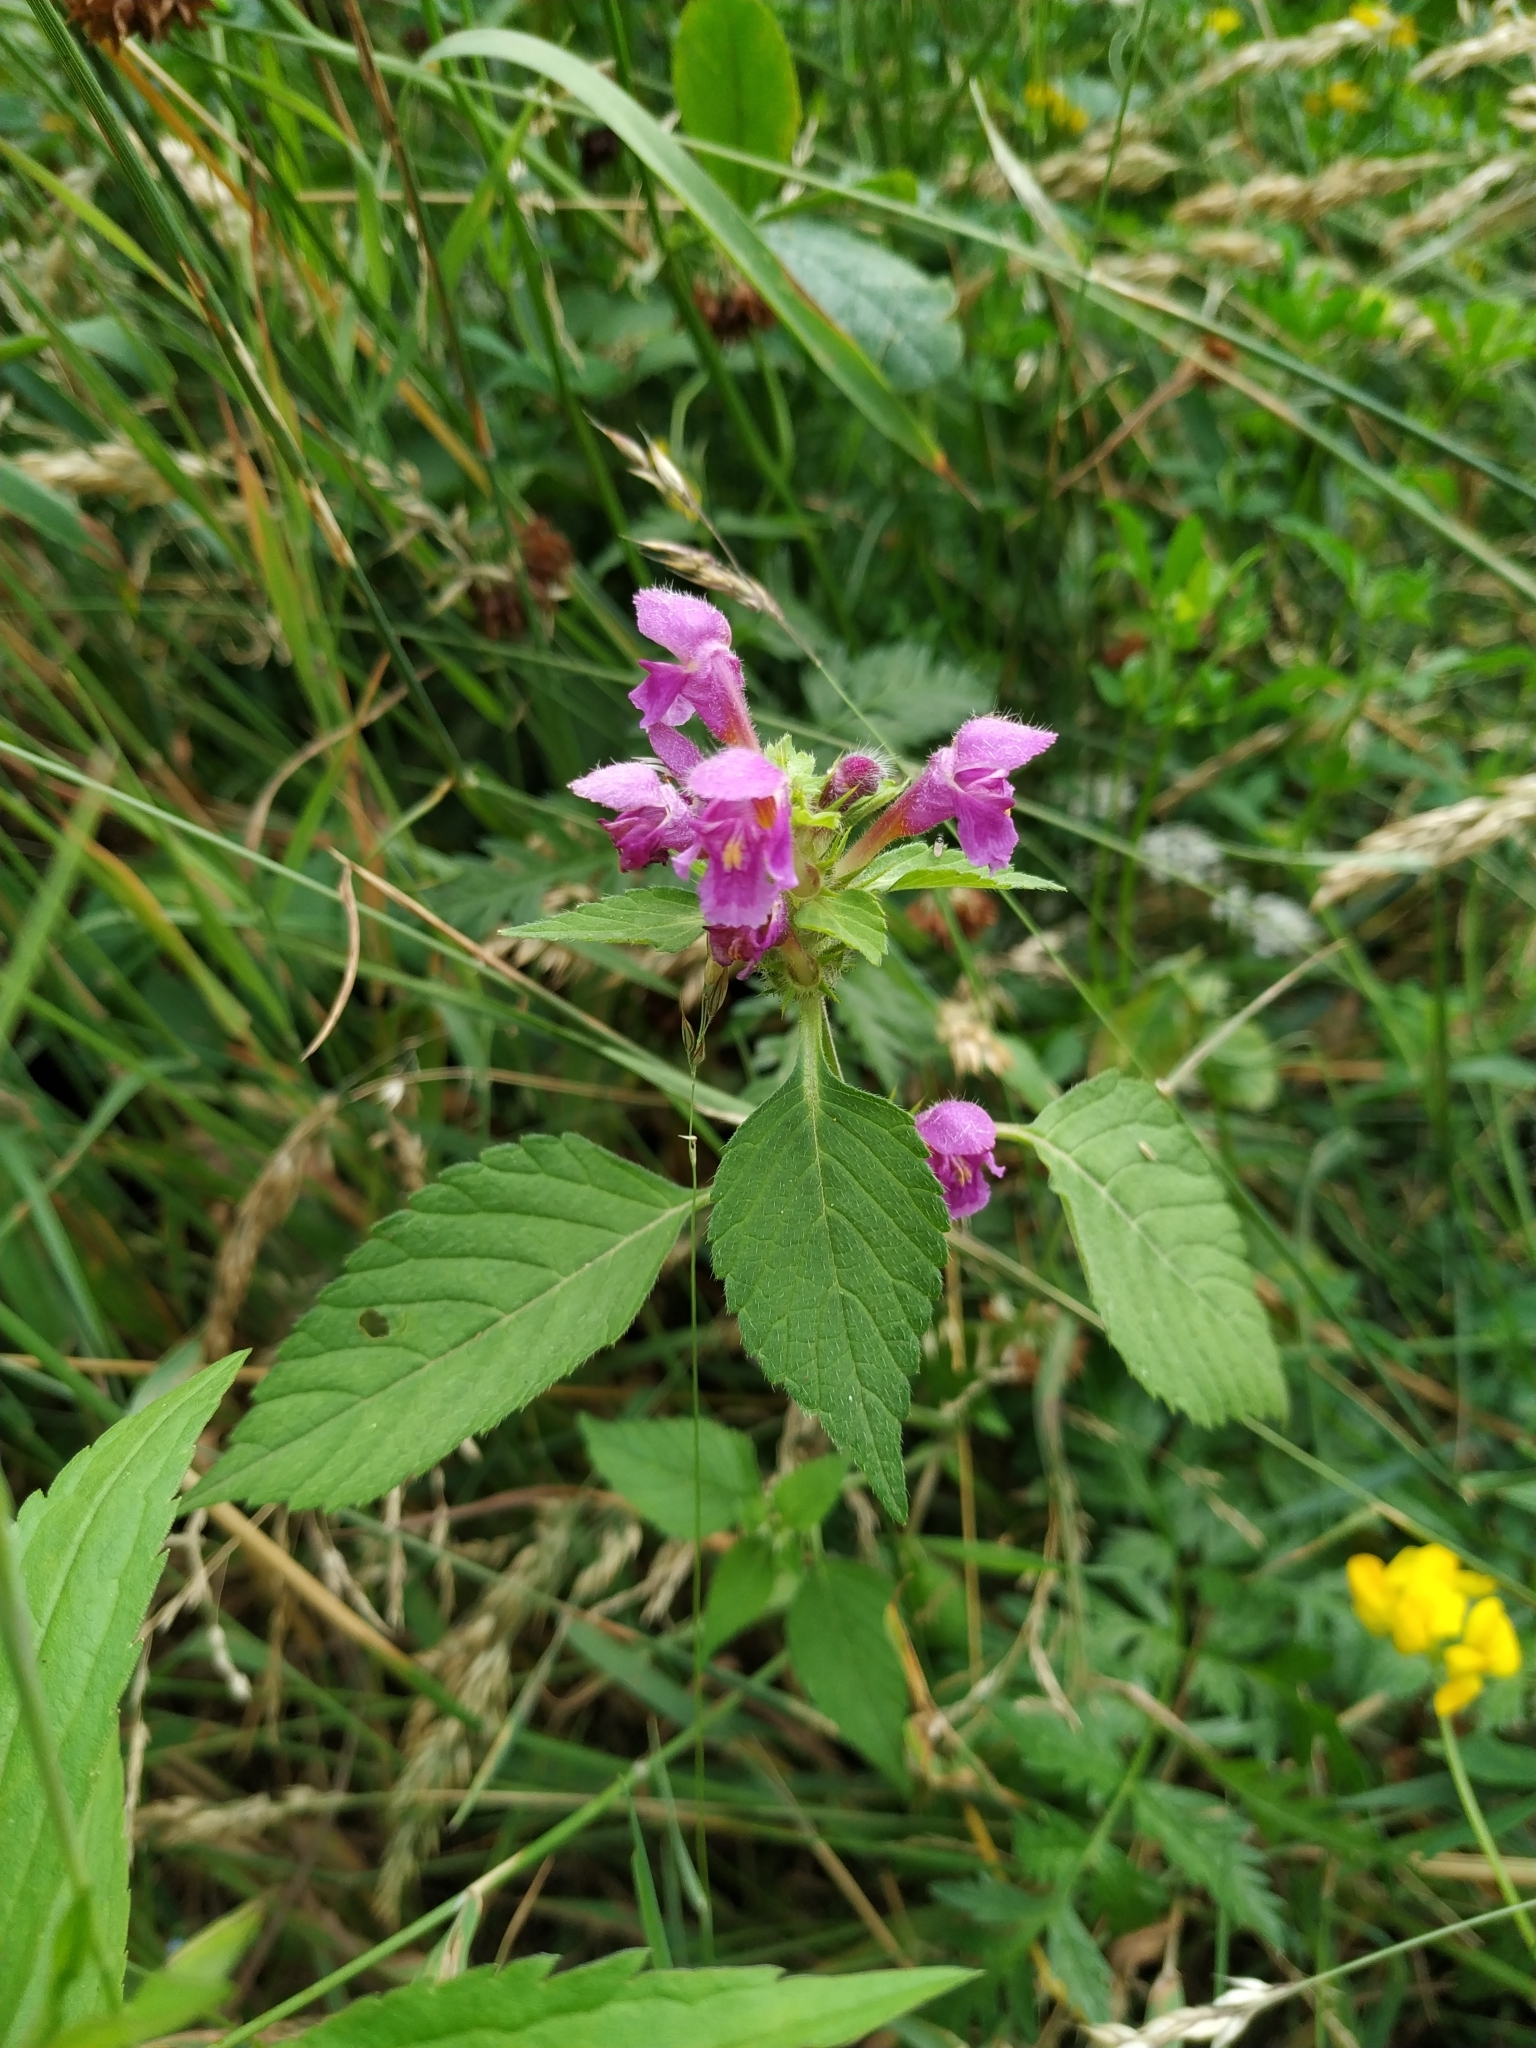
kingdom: Plantae
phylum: Tracheophyta
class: Magnoliopsida
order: Lamiales
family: Lamiaceae
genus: Galeopsis
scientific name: Galeopsis pubescens
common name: Downy hemp-nettle
